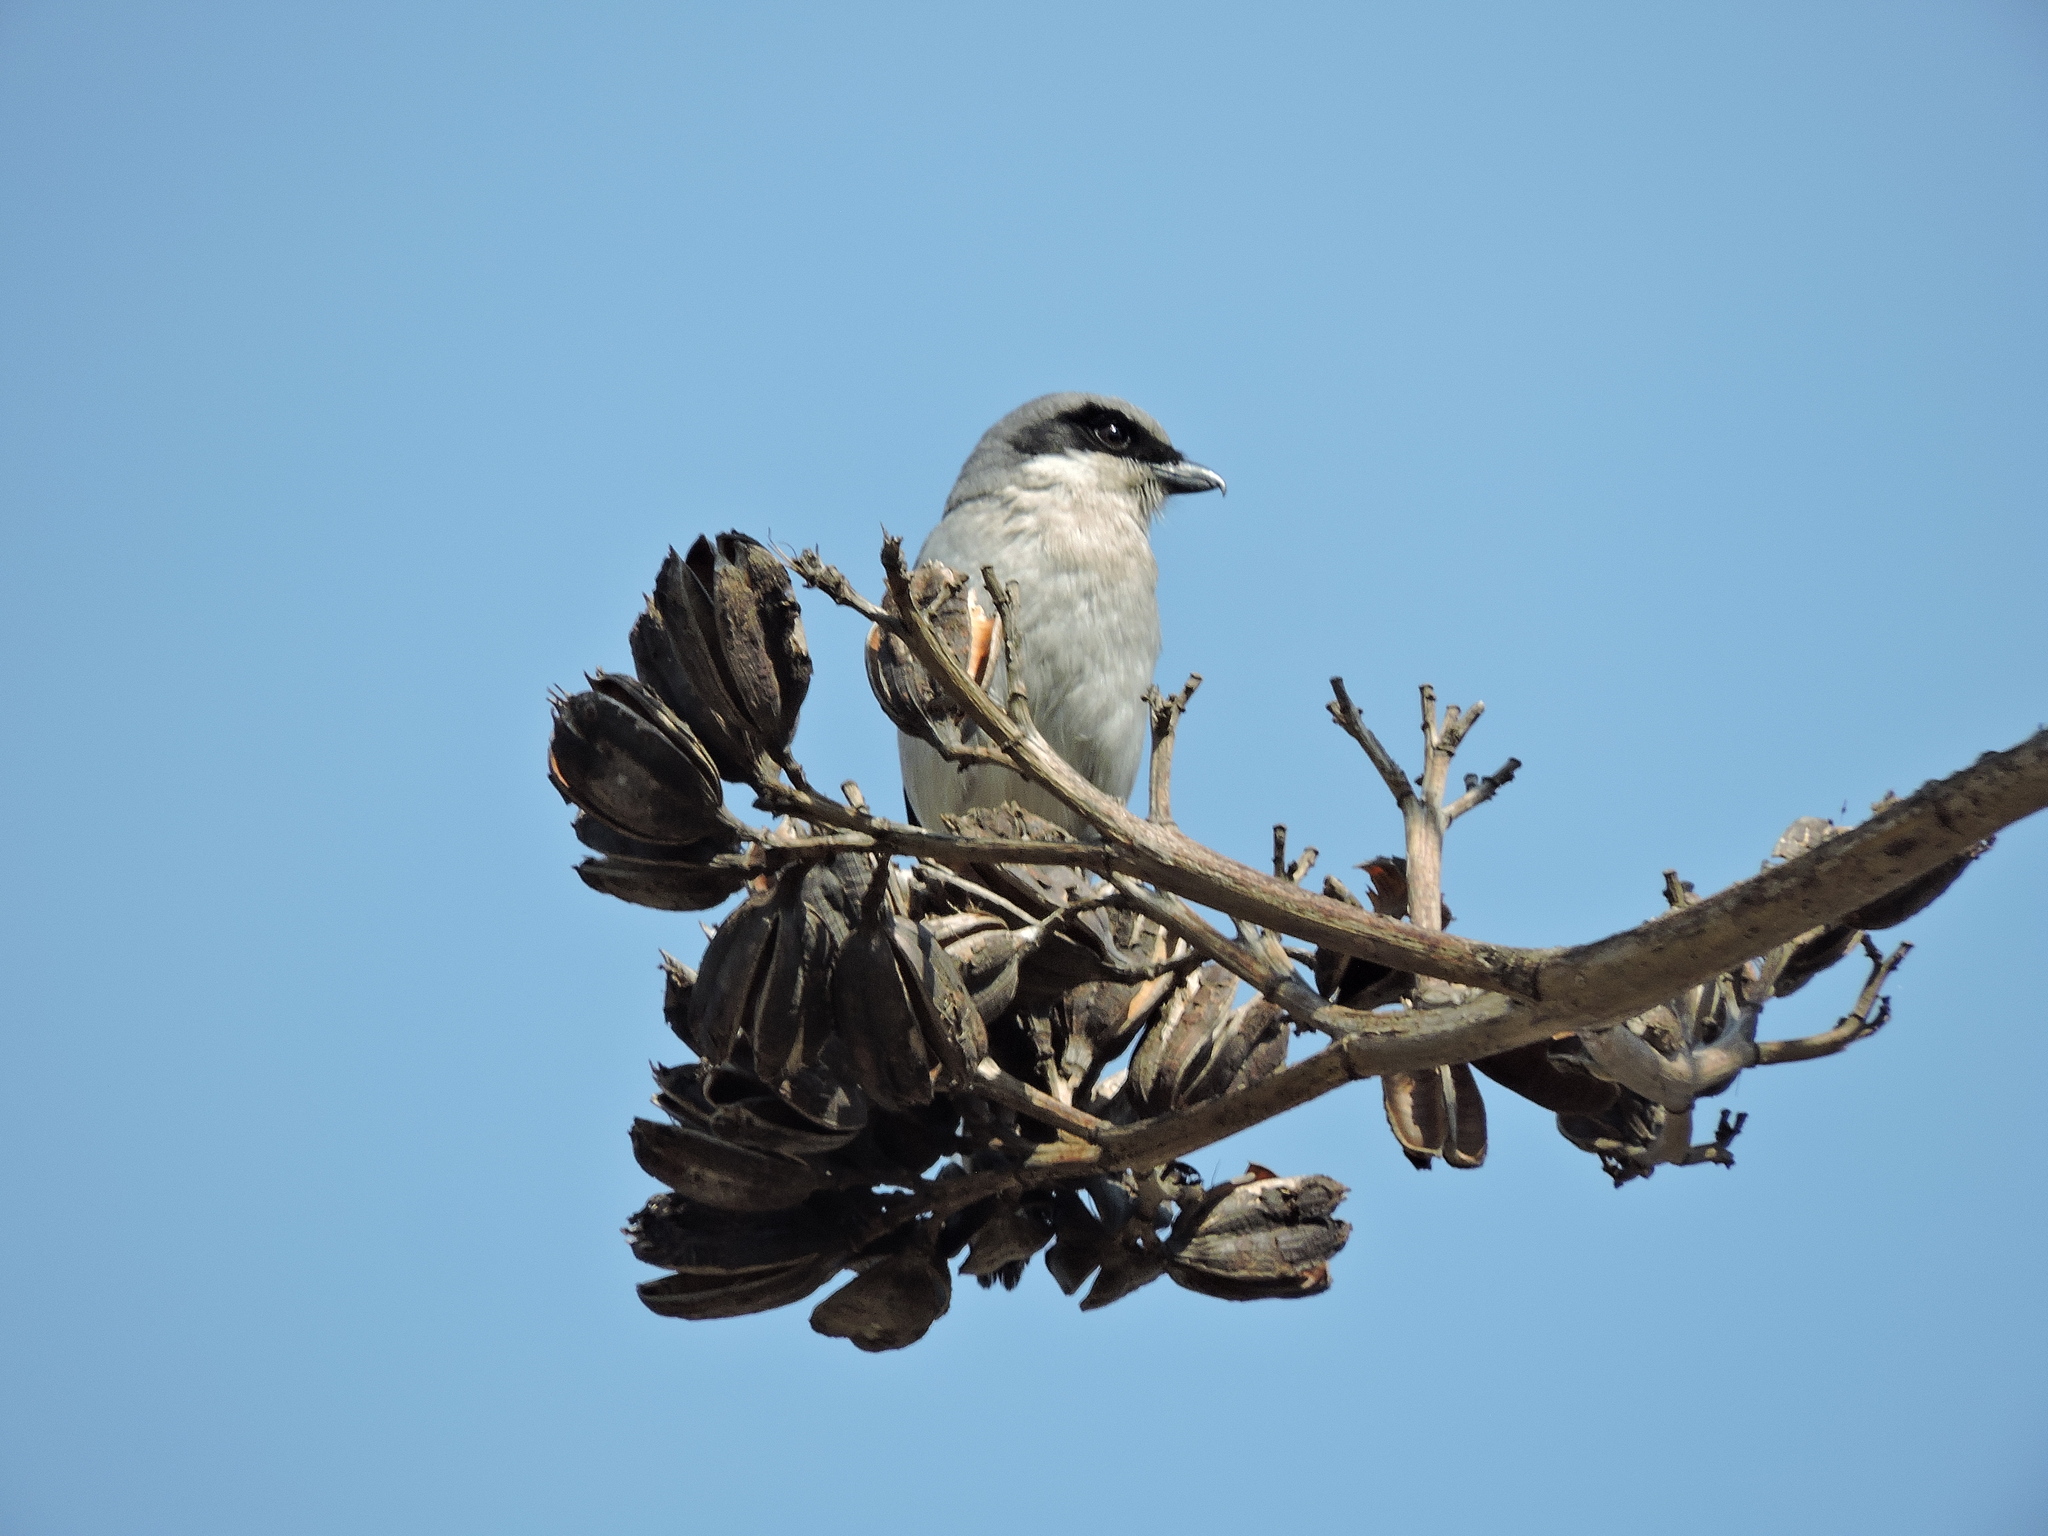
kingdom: Animalia
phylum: Chordata
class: Aves
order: Passeriformes
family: Laniidae
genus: Lanius
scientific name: Lanius ludovicianus
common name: Loggerhead shrike
